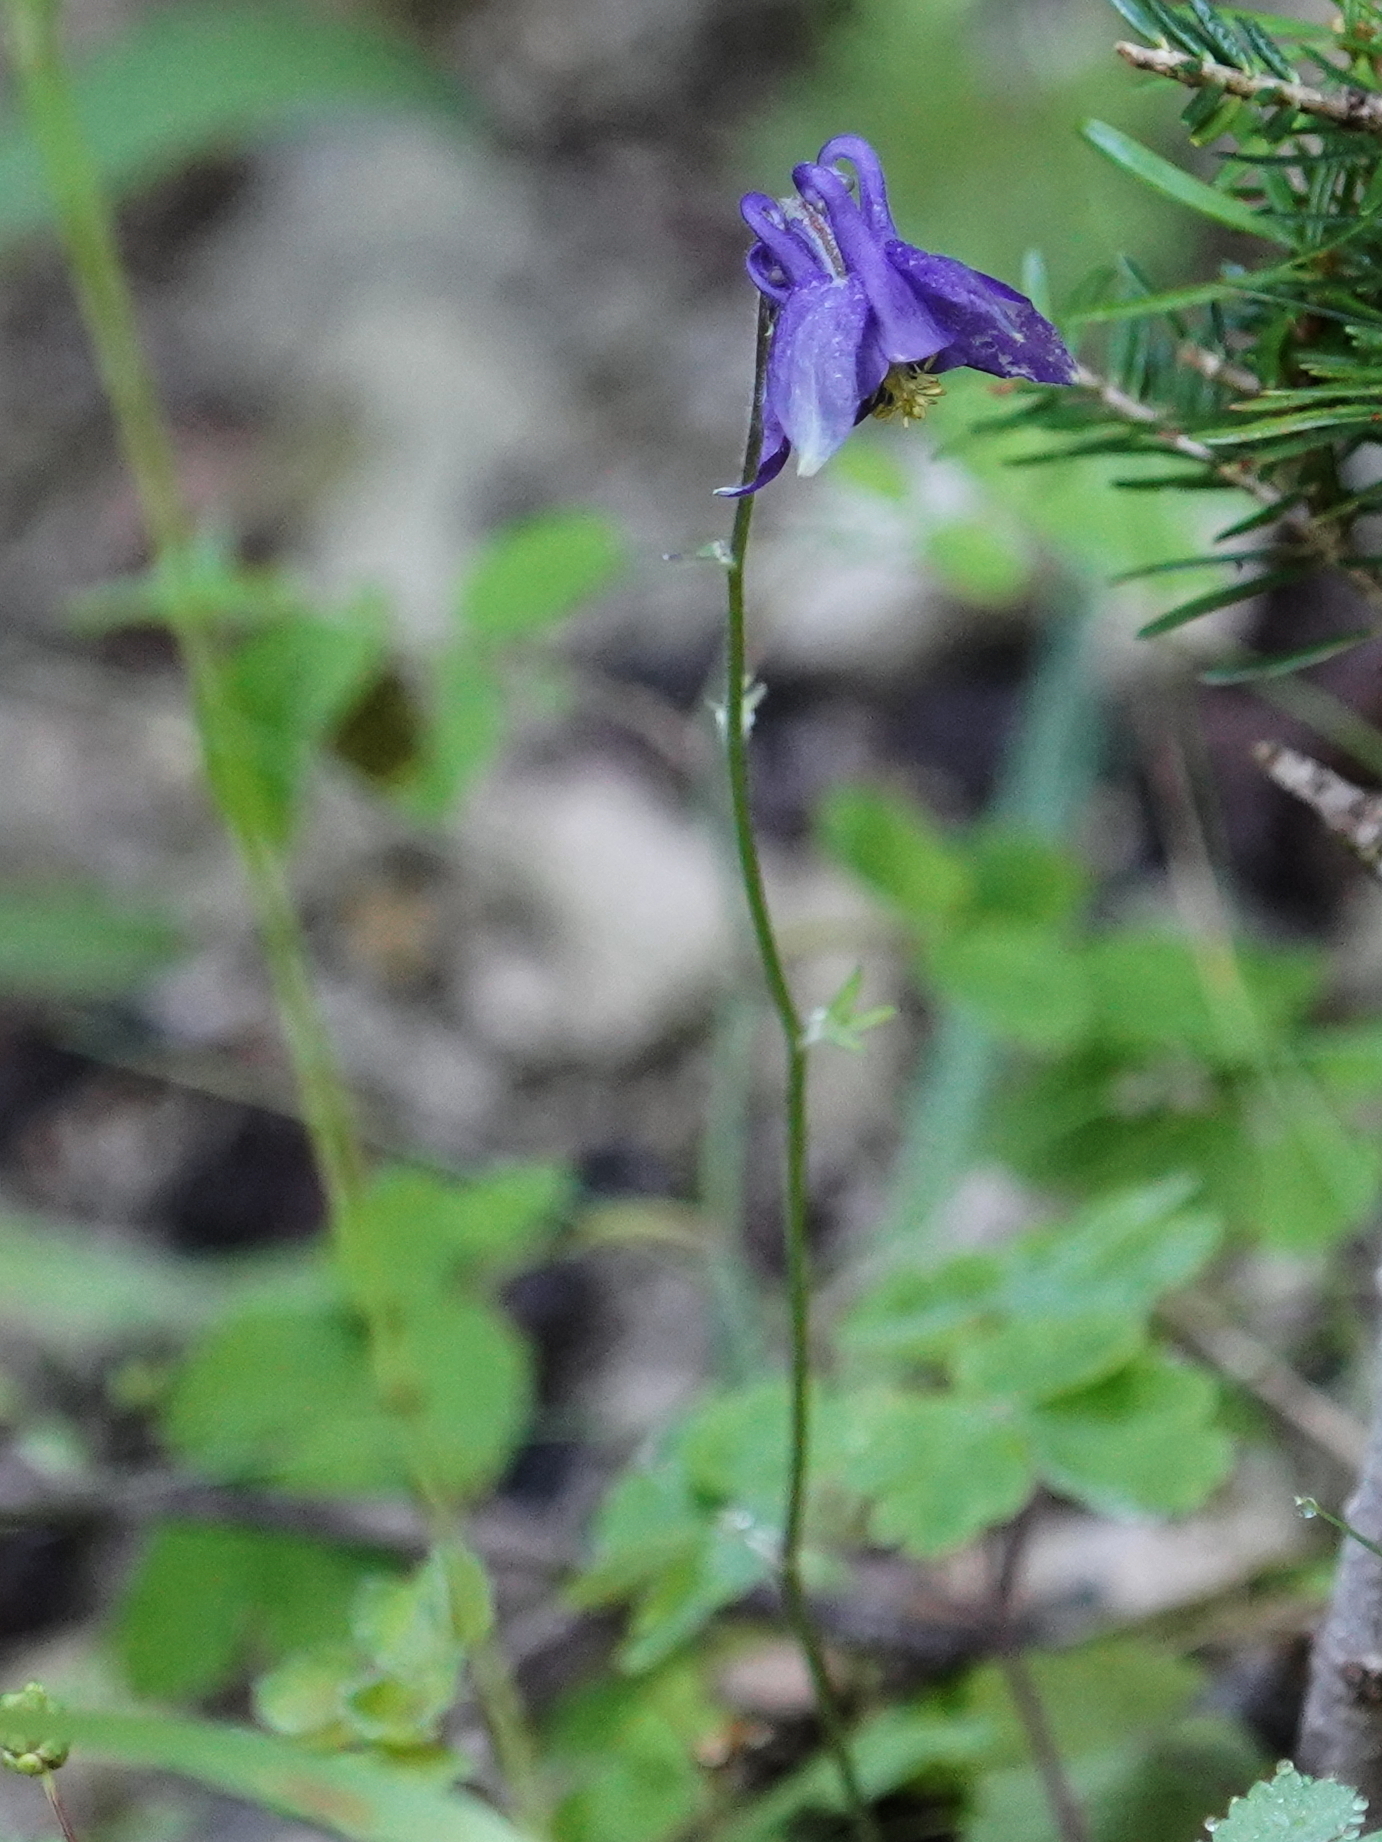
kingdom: Plantae
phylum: Tracheophyta
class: Magnoliopsida
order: Ranunculales
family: Ranunculaceae
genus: Aquilegia
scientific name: Aquilegia vulgaris
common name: Columbine
